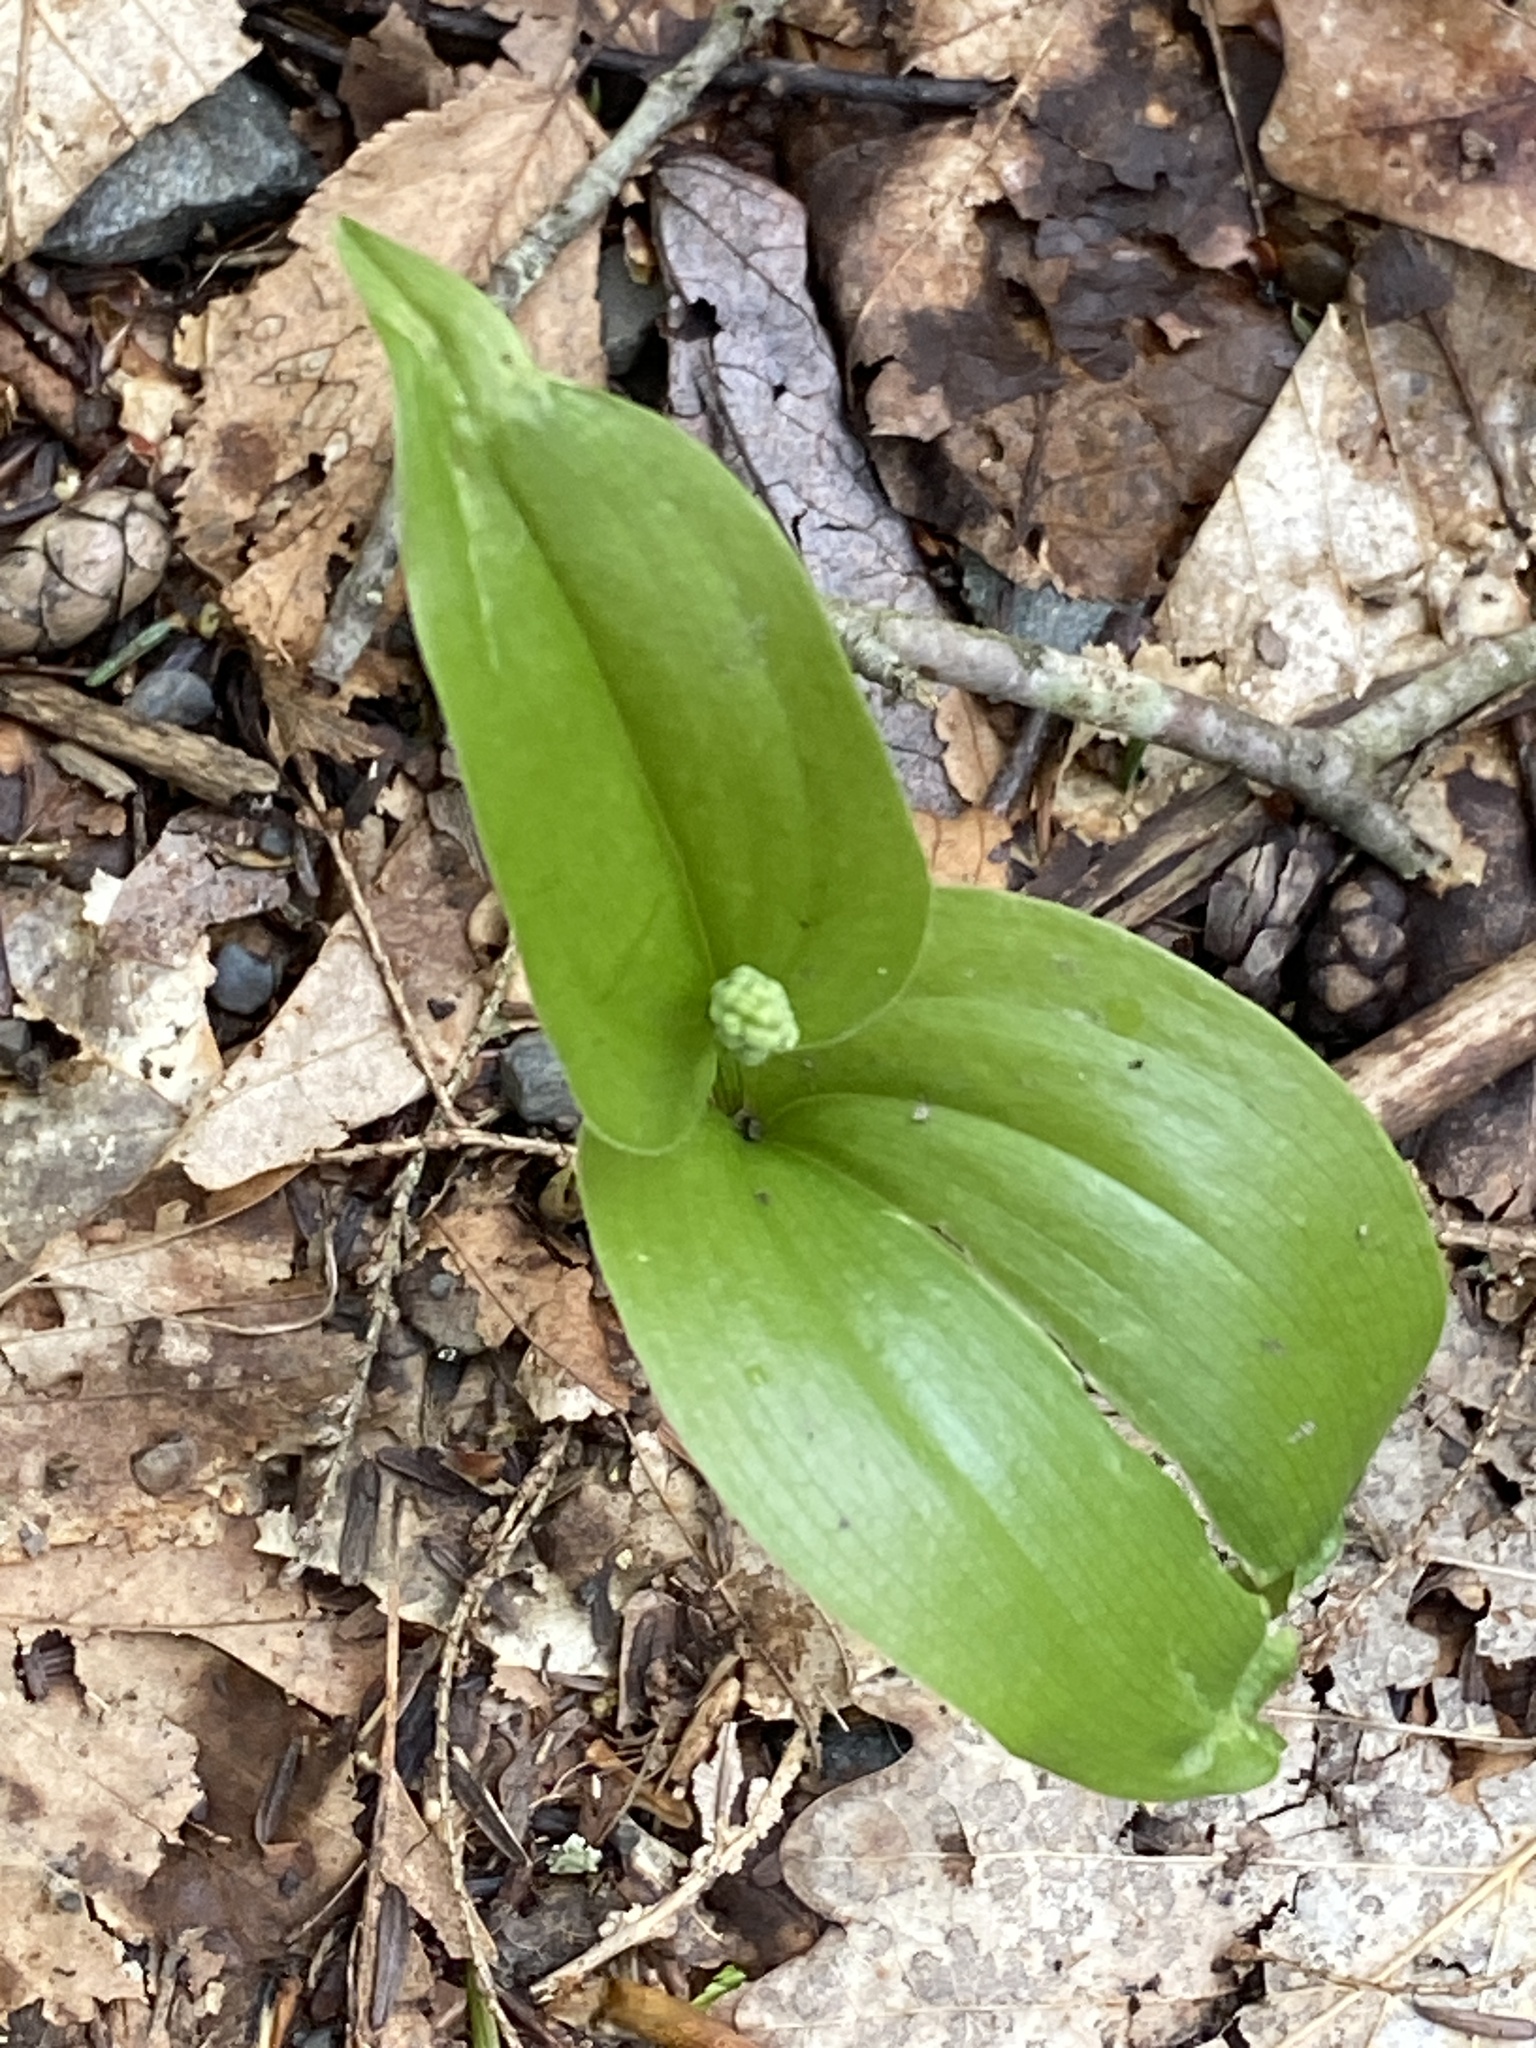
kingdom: Plantae
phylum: Tracheophyta
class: Liliopsida
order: Asparagales
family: Asparagaceae
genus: Maianthemum
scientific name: Maianthemum canadense
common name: False lily-of-the-valley
